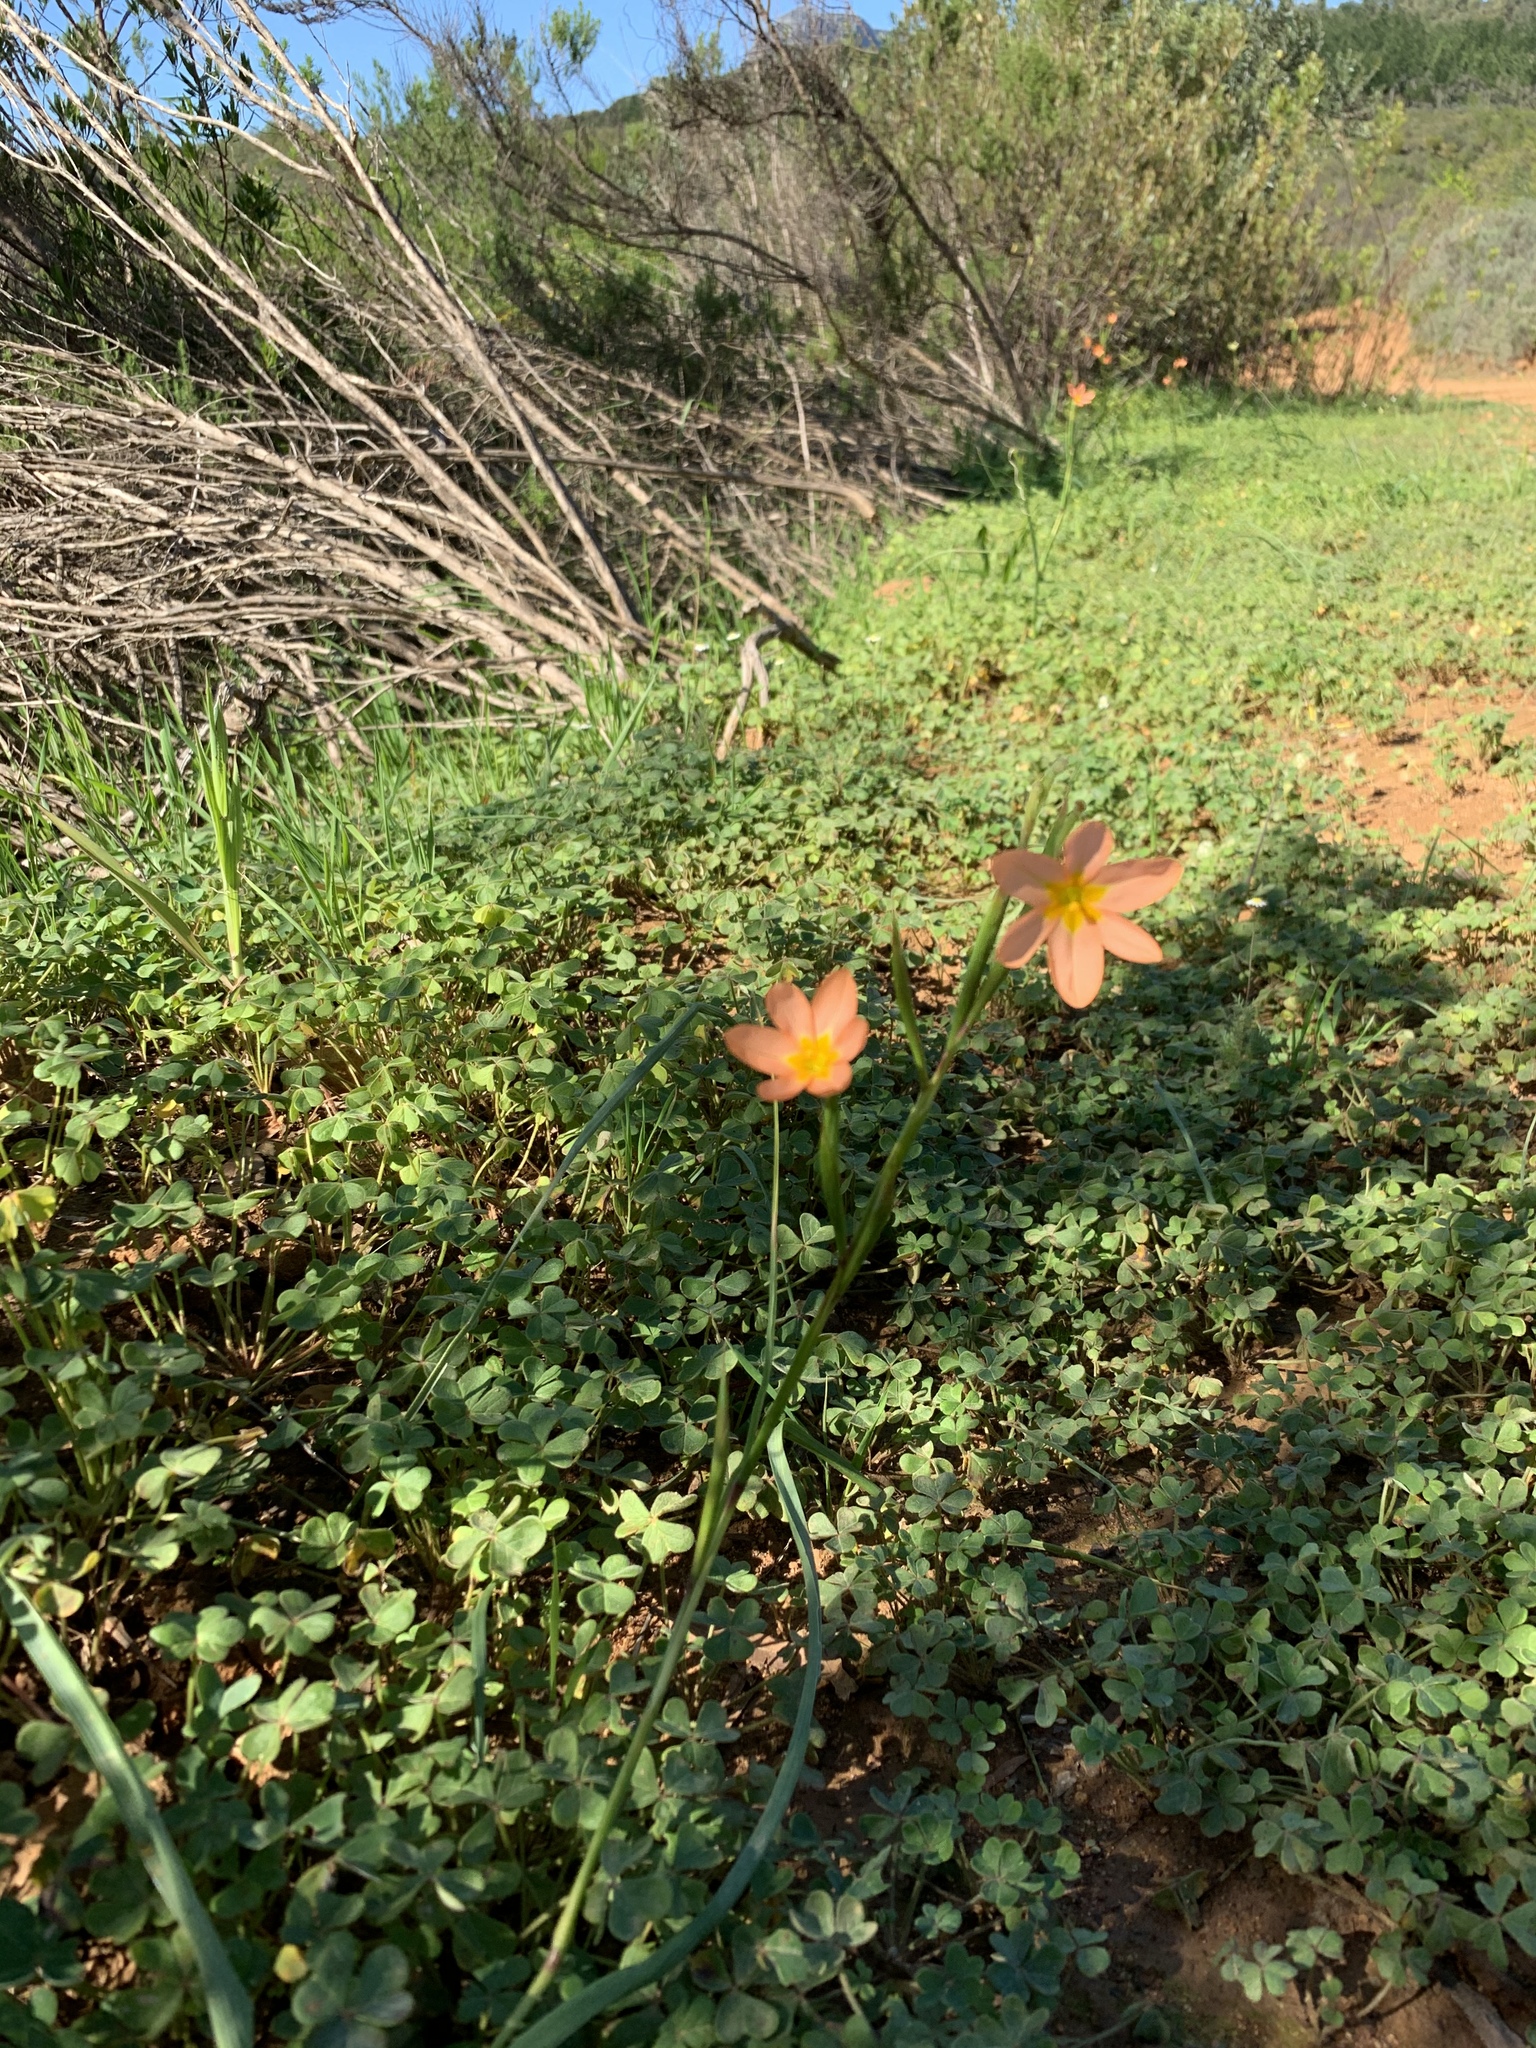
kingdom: Plantae
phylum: Tracheophyta
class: Liliopsida
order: Asparagales
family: Iridaceae
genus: Moraea
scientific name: Moraea miniata
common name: Two-leaf cape-tulip
